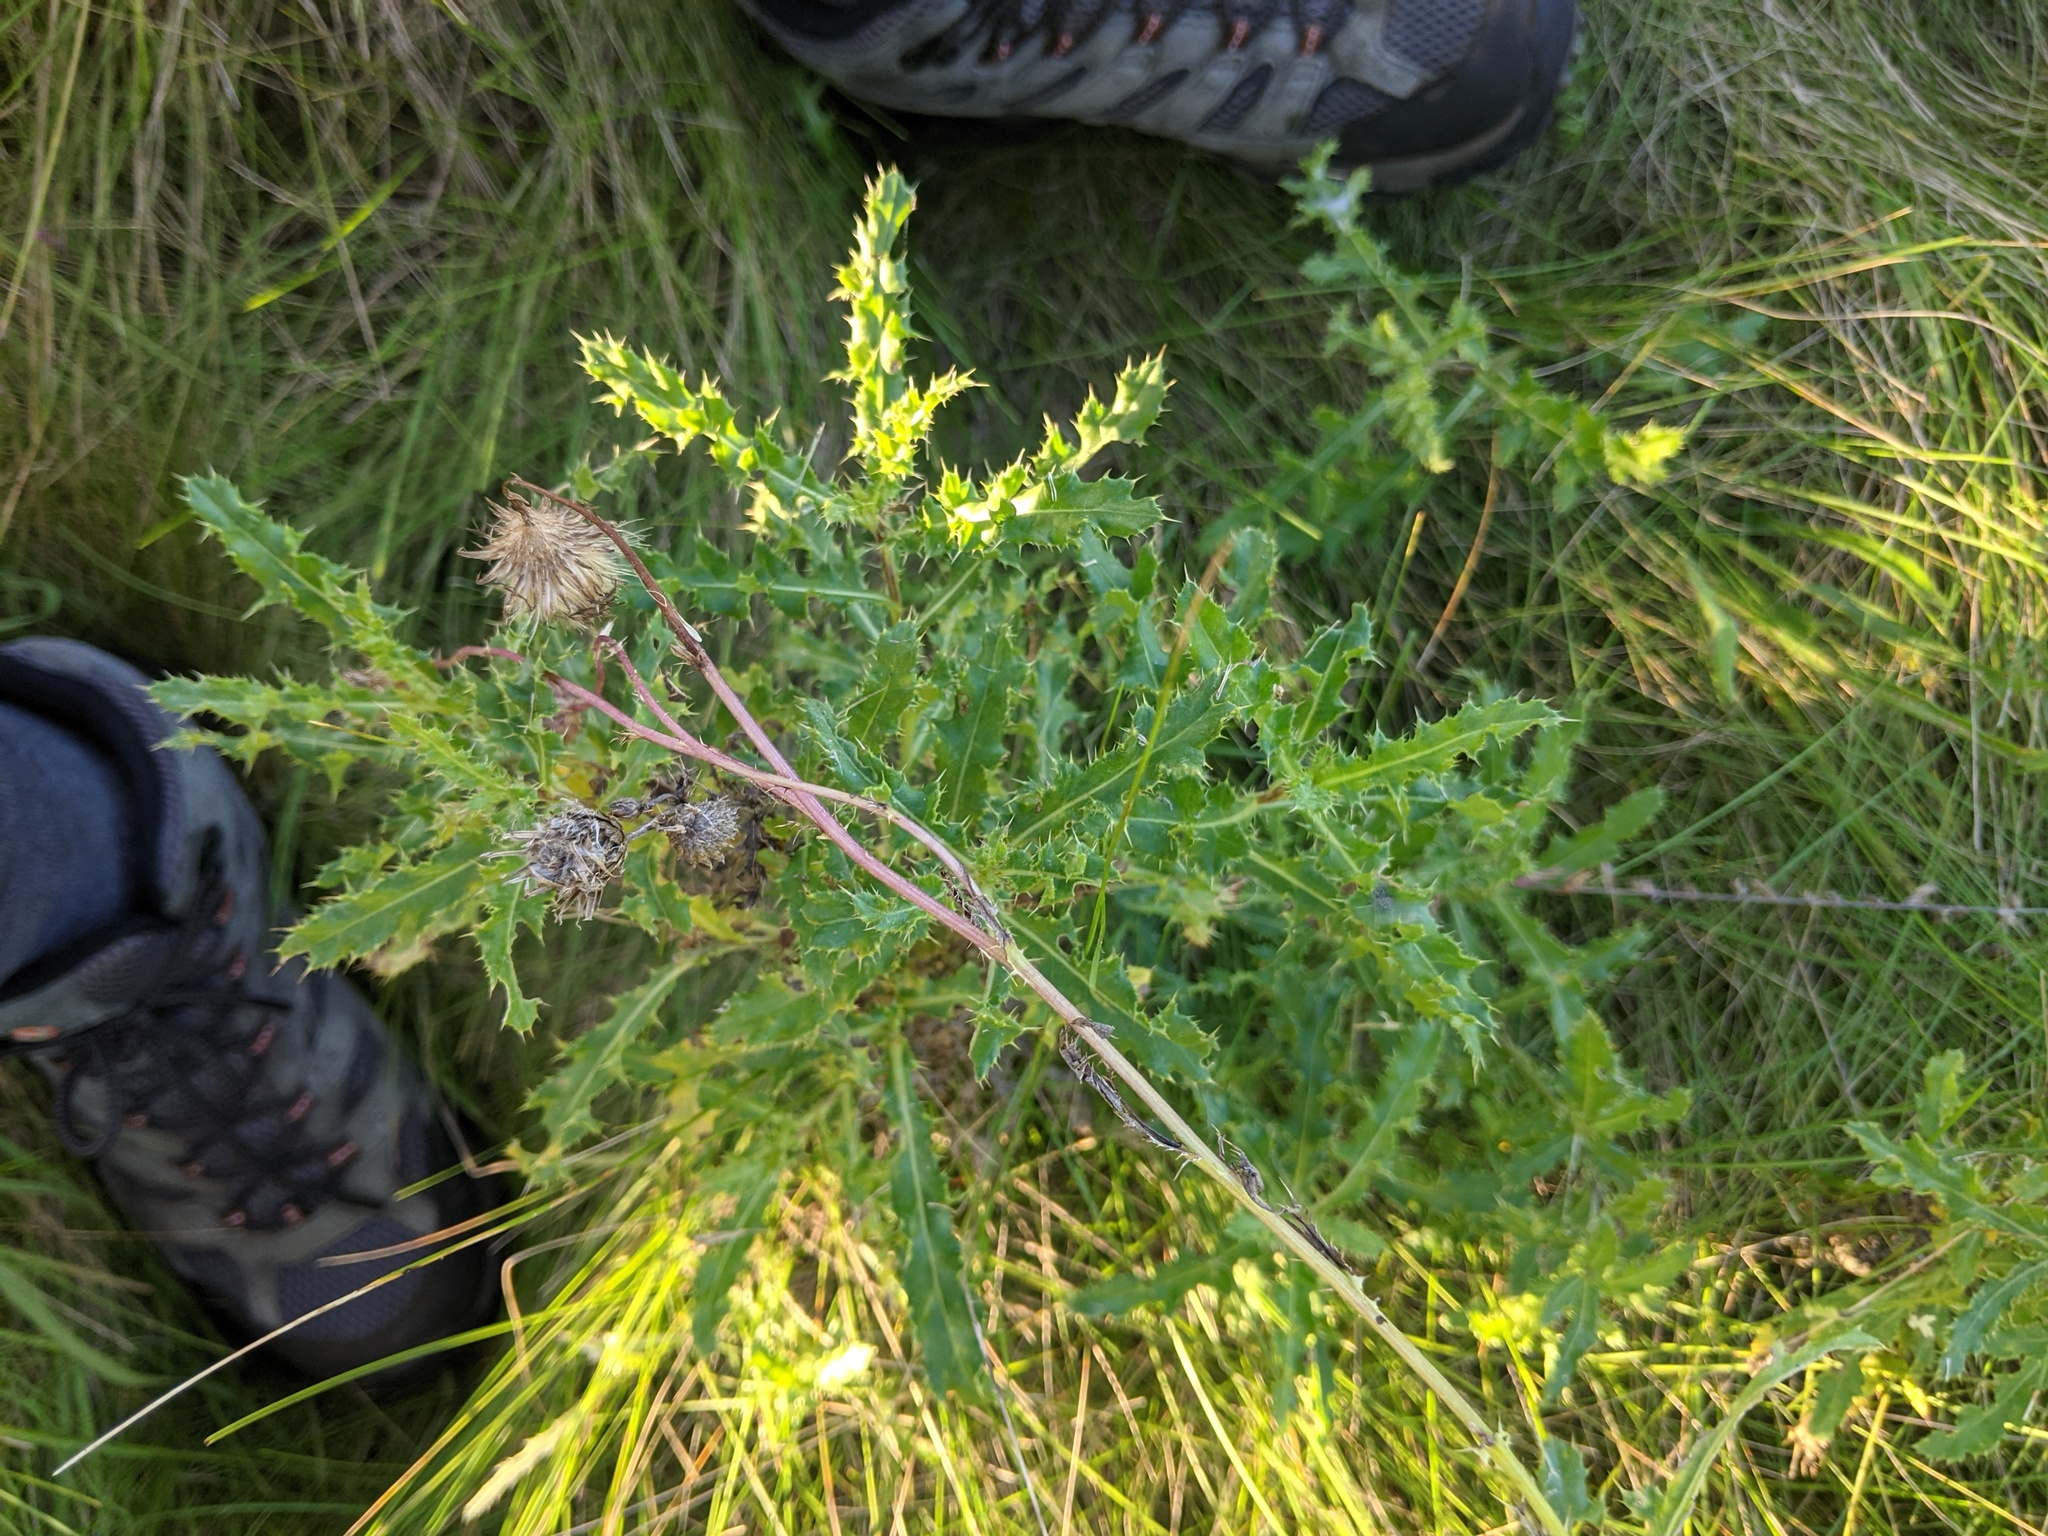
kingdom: Plantae
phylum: Tracheophyta
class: Magnoliopsida
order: Asterales
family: Asteraceae
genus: Cirsium
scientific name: Cirsium arvense
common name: Creeping thistle
